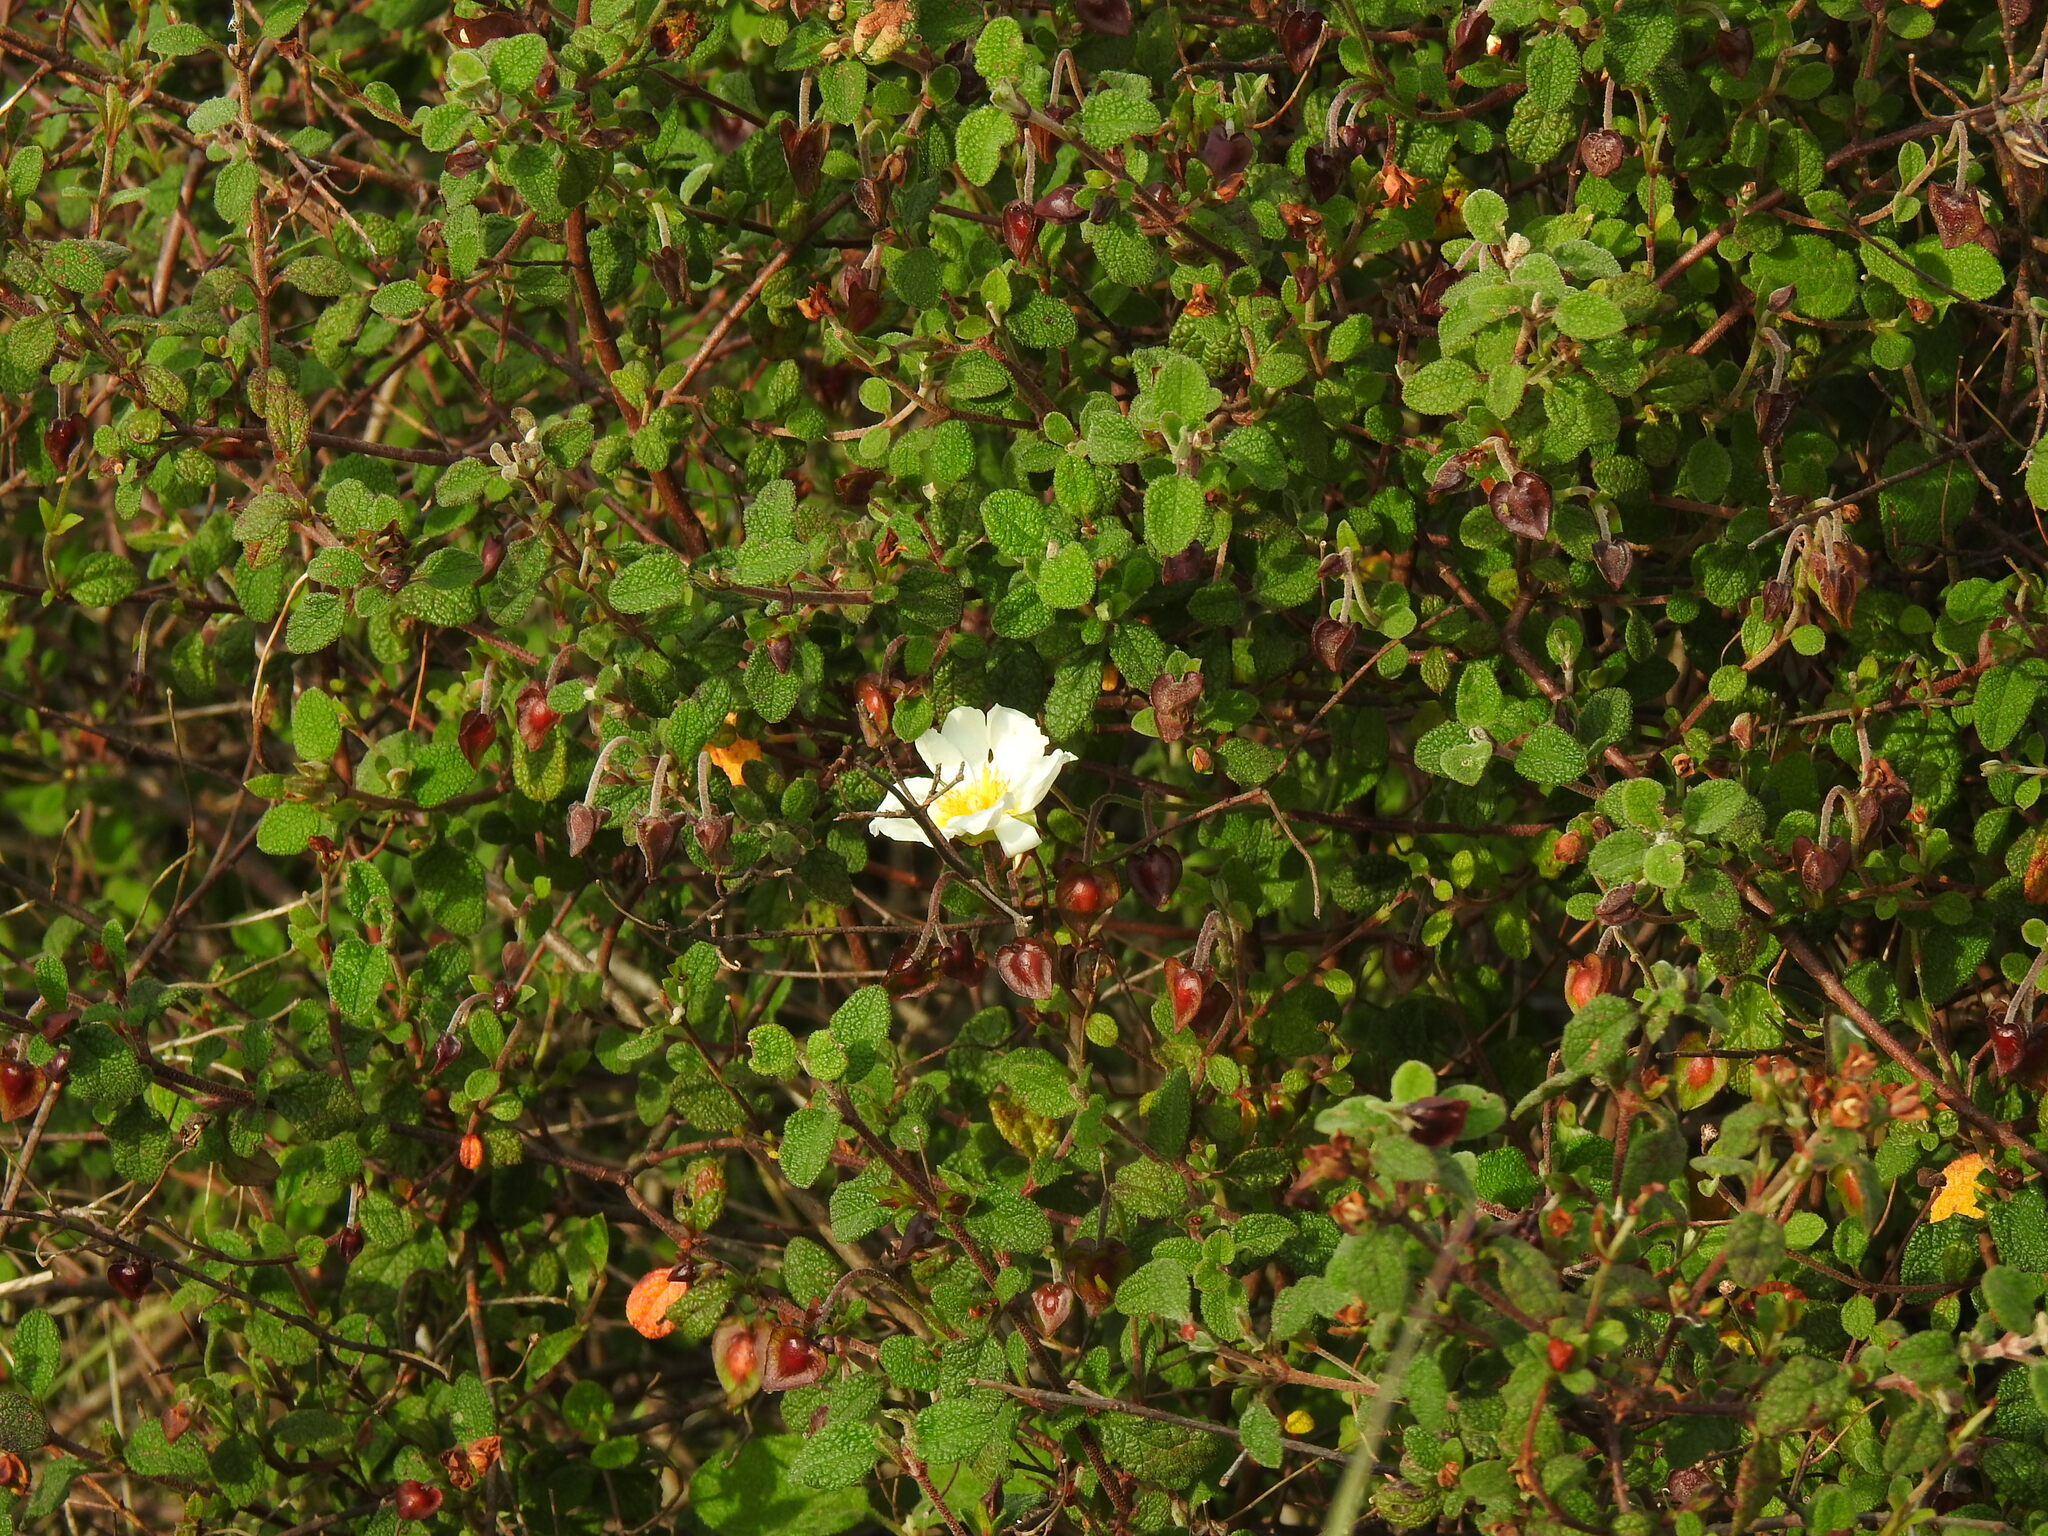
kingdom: Plantae
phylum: Tracheophyta
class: Magnoliopsida
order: Malvales
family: Cistaceae
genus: Cistus
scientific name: Cistus salviifolius
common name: Salvia cistus
